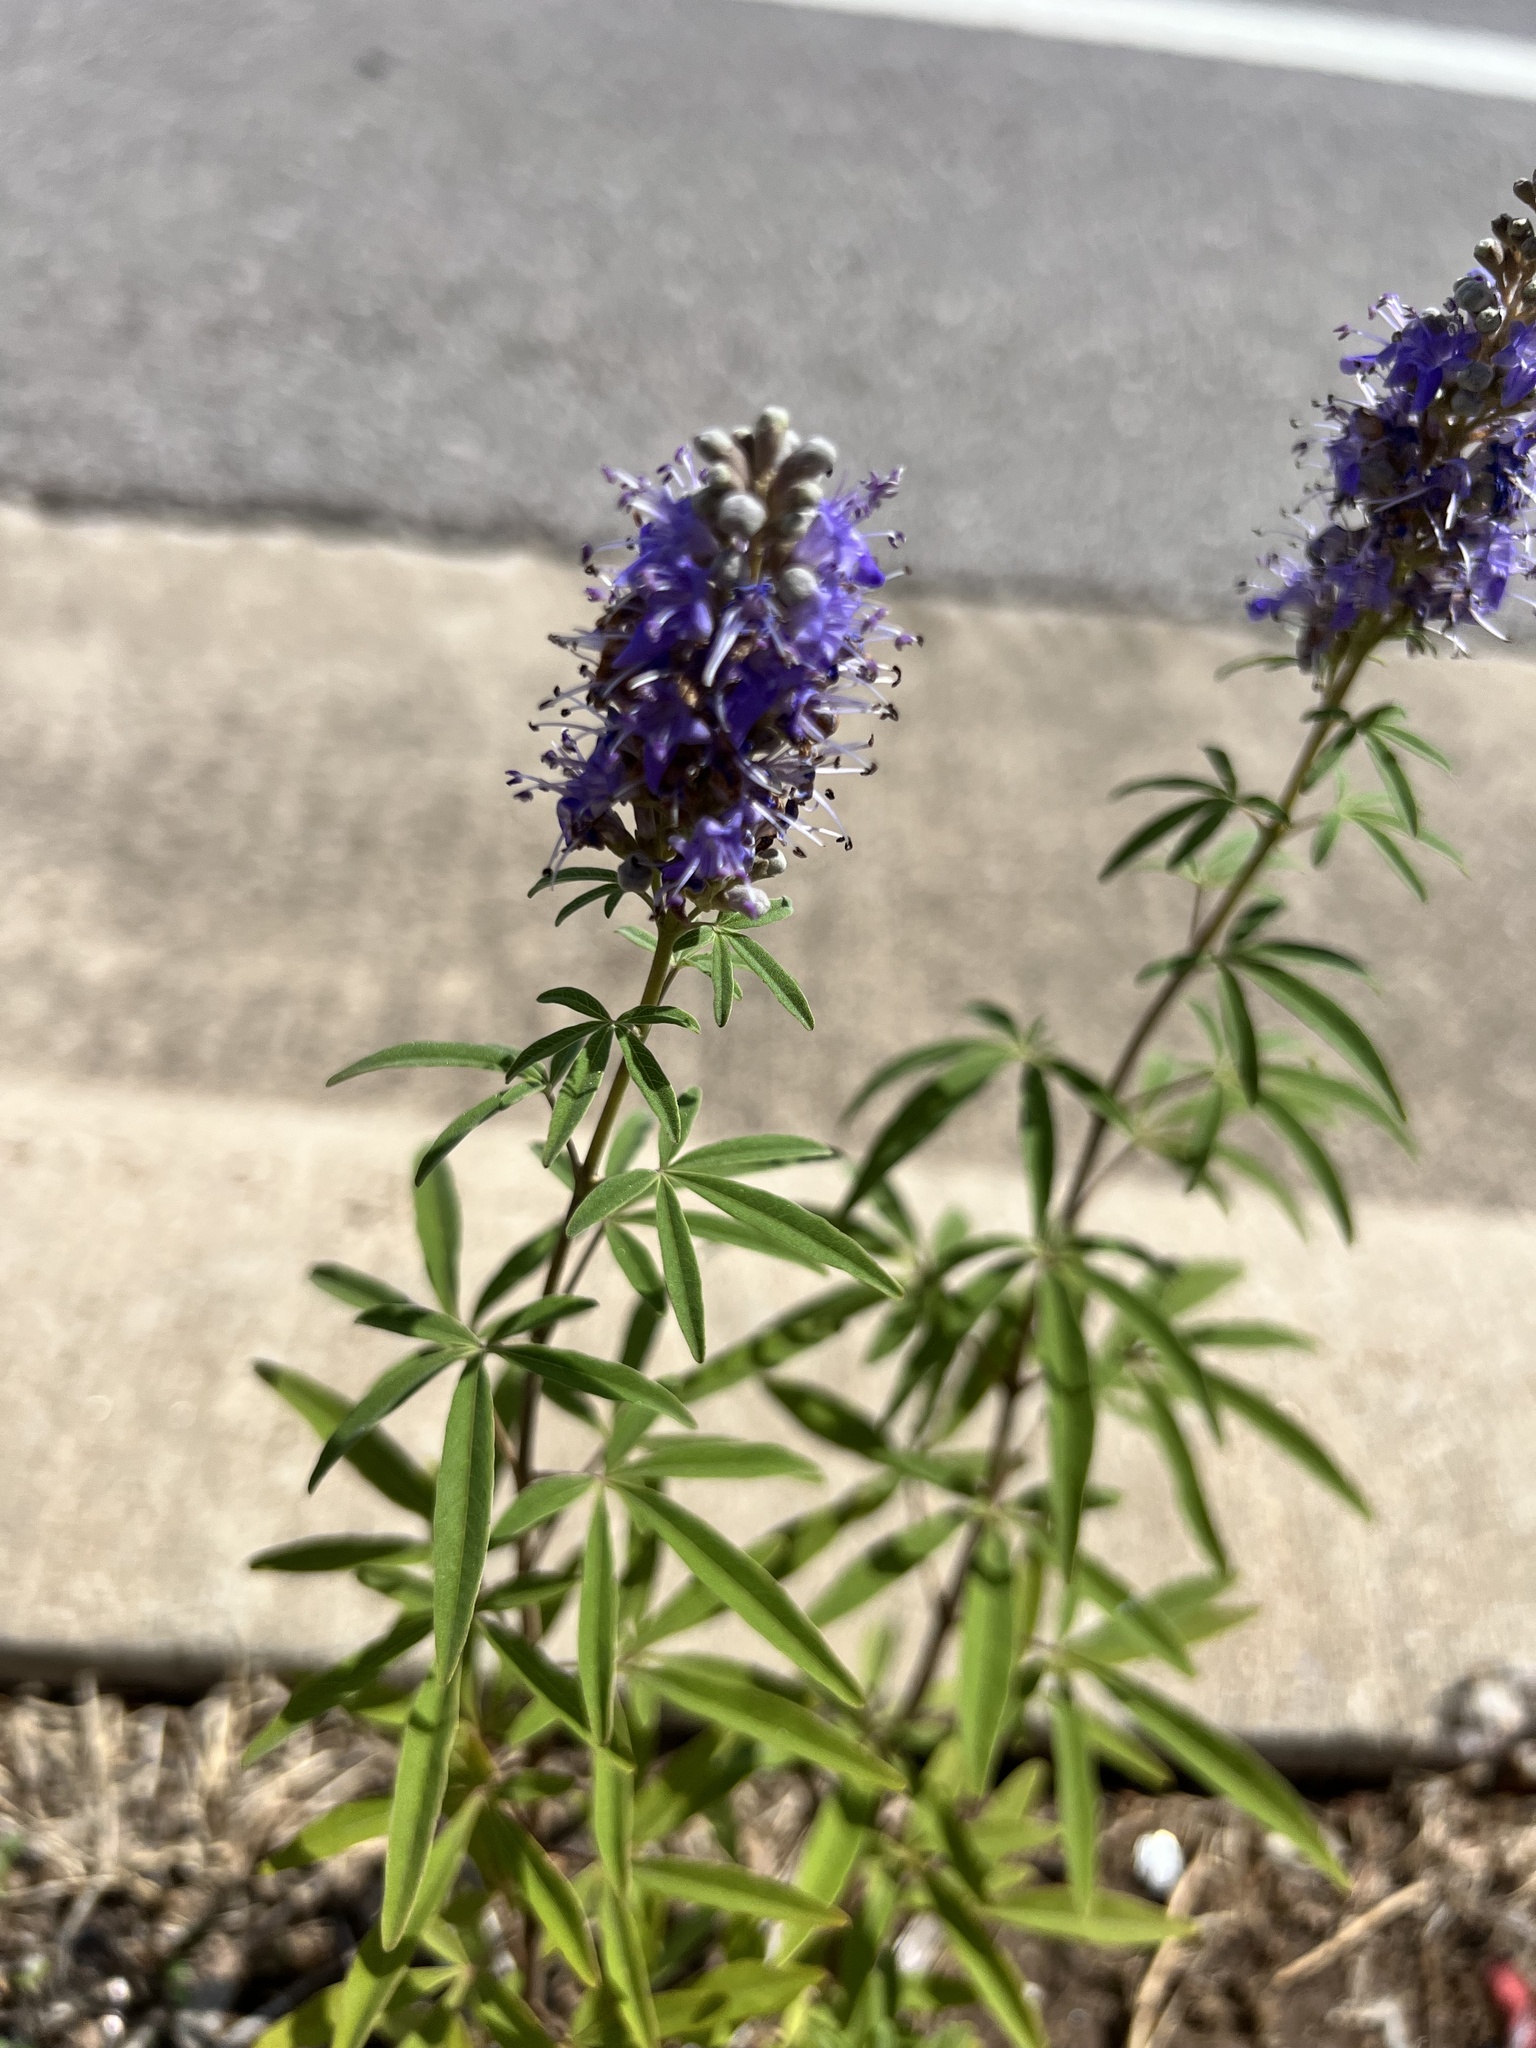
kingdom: Plantae
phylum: Tracheophyta
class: Magnoliopsida
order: Lamiales
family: Lamiaceae
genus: Vitex
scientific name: Vitex agnus-castus
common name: Chasteberry
